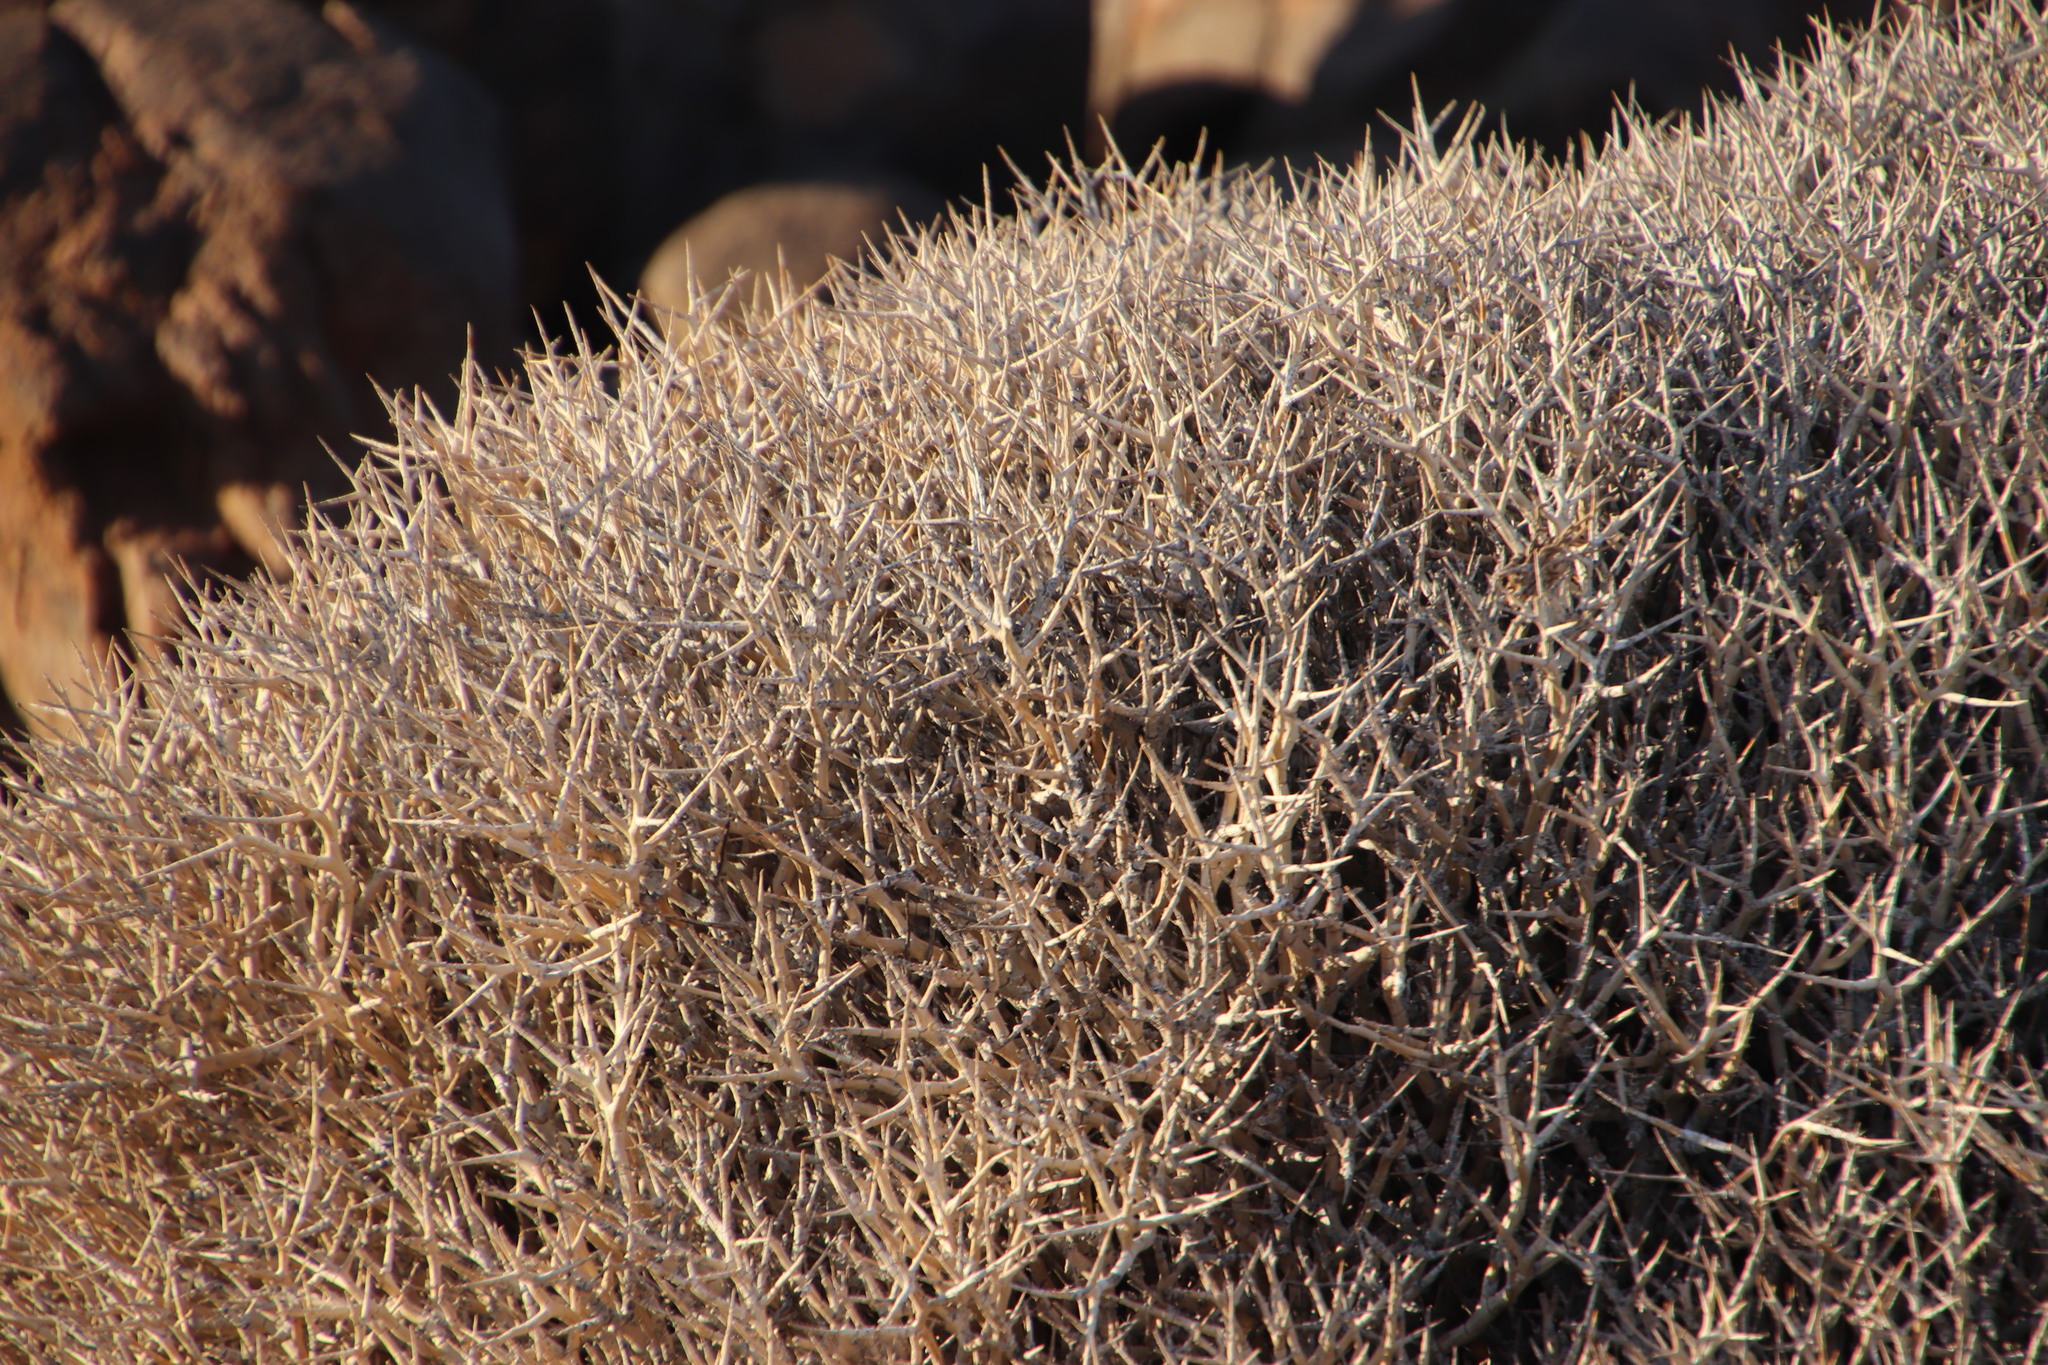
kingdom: Plantae
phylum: Tracheophyta
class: Magnoliopsida
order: Malpighiales
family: Euphorbiaceae
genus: Euphorbia
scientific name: Euphorbia lignosa
